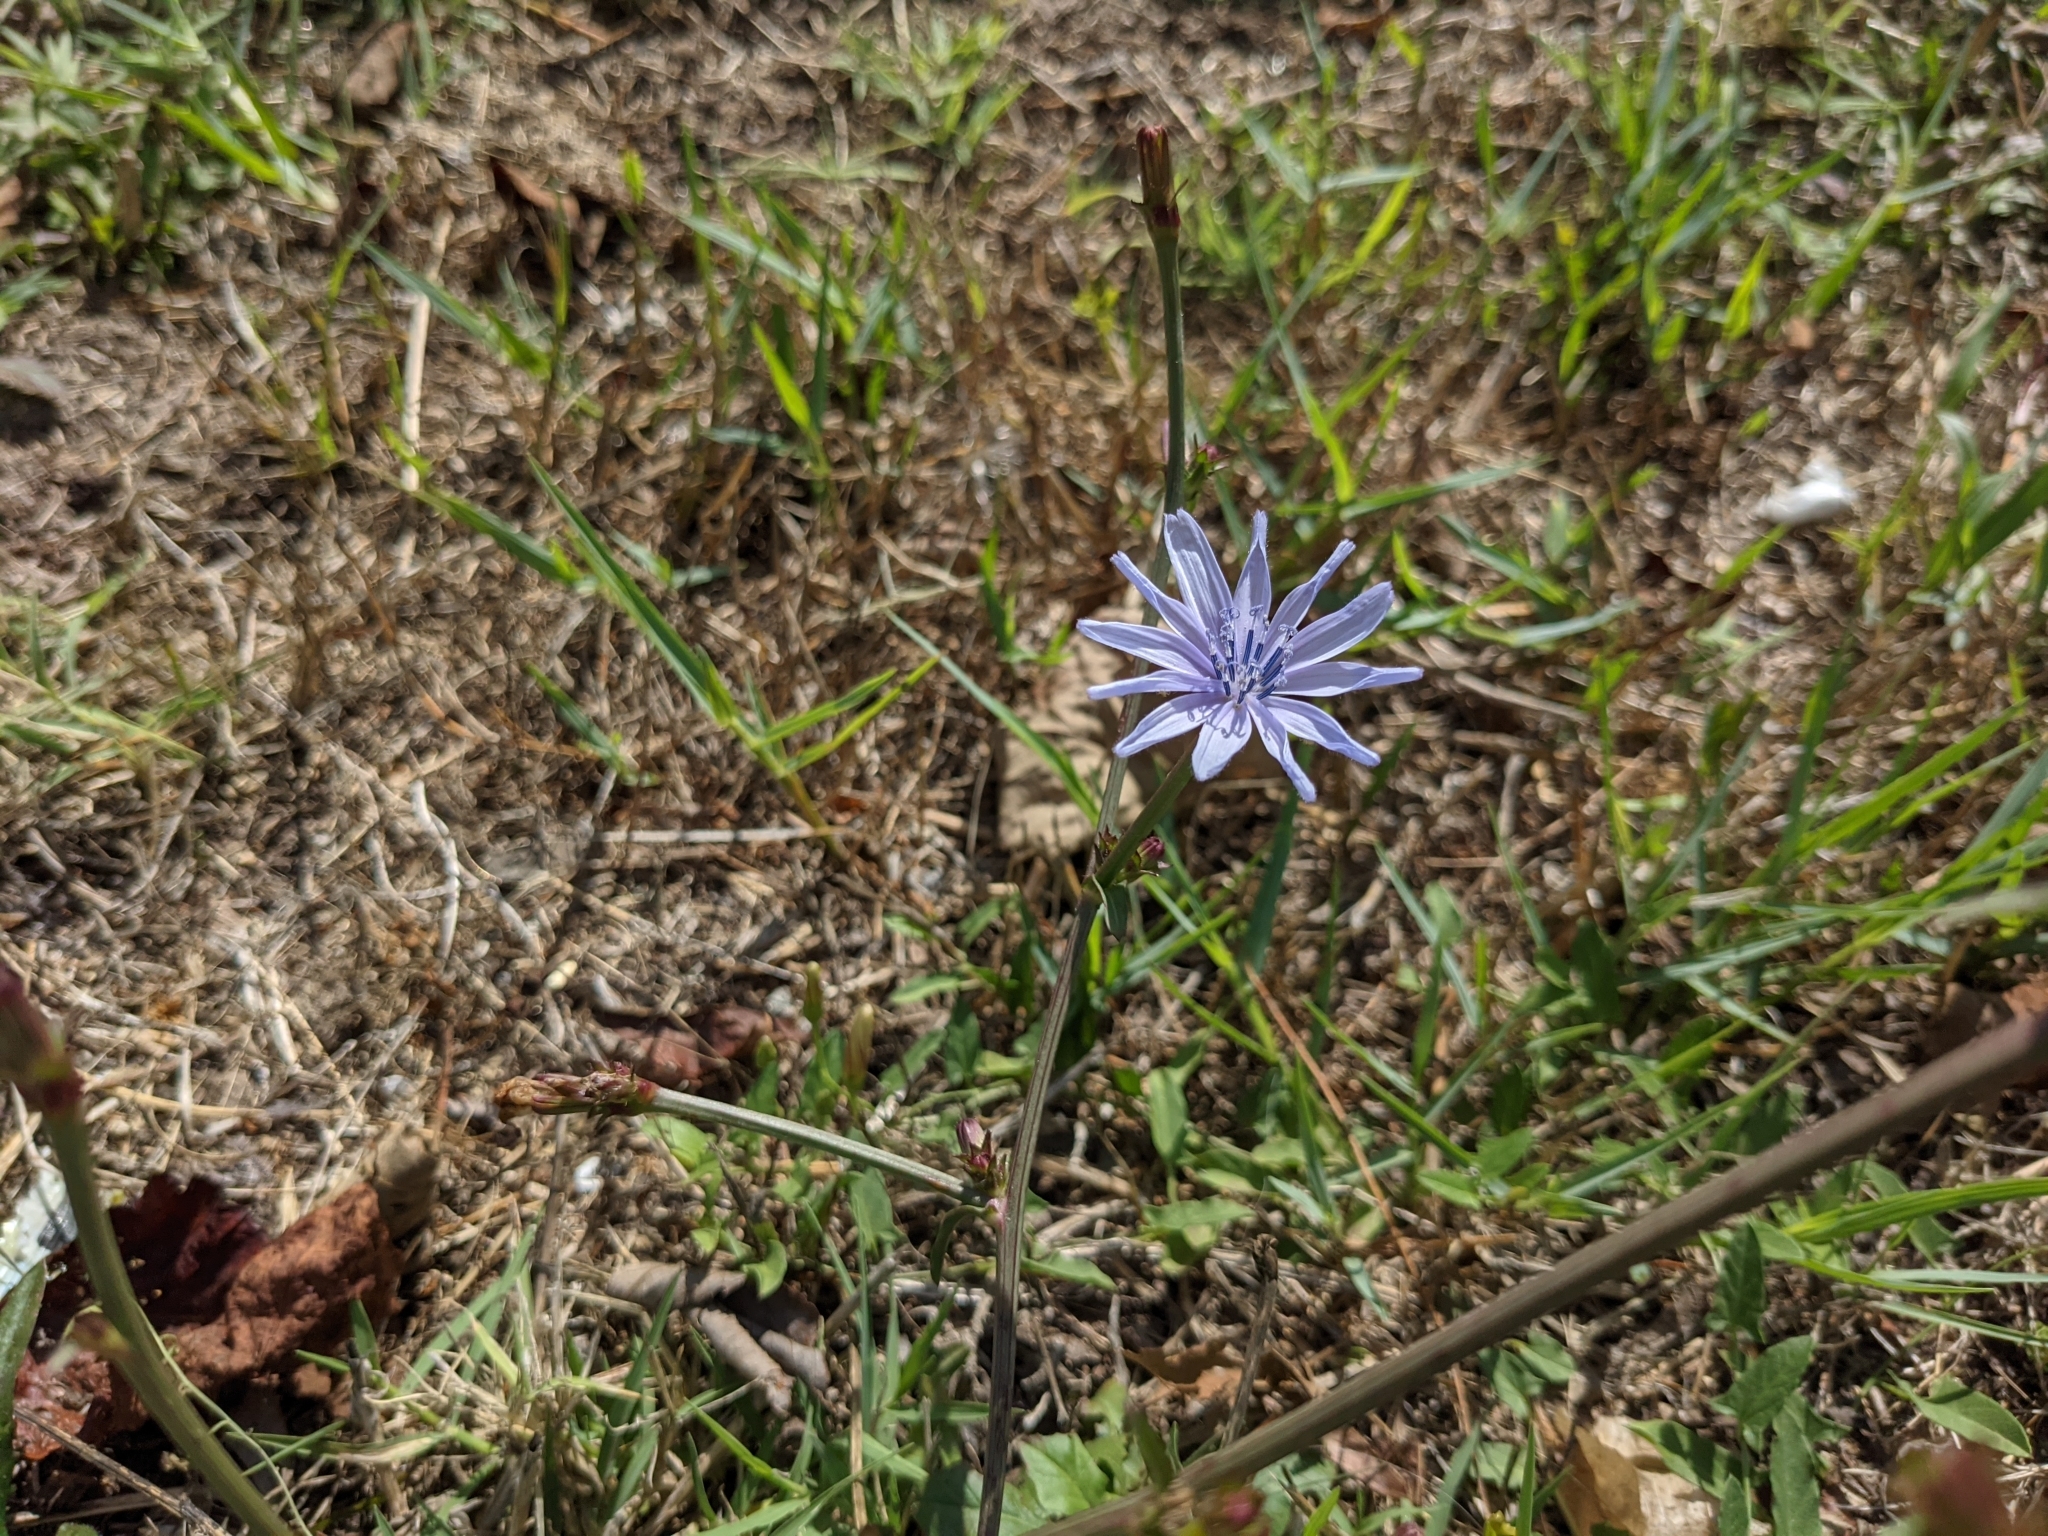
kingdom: Plantae
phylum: Tracheophyta
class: Magnoliopsida
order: Asterales
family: Asteraceae
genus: Cichorium
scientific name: Cichorium intybus
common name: Chicory
